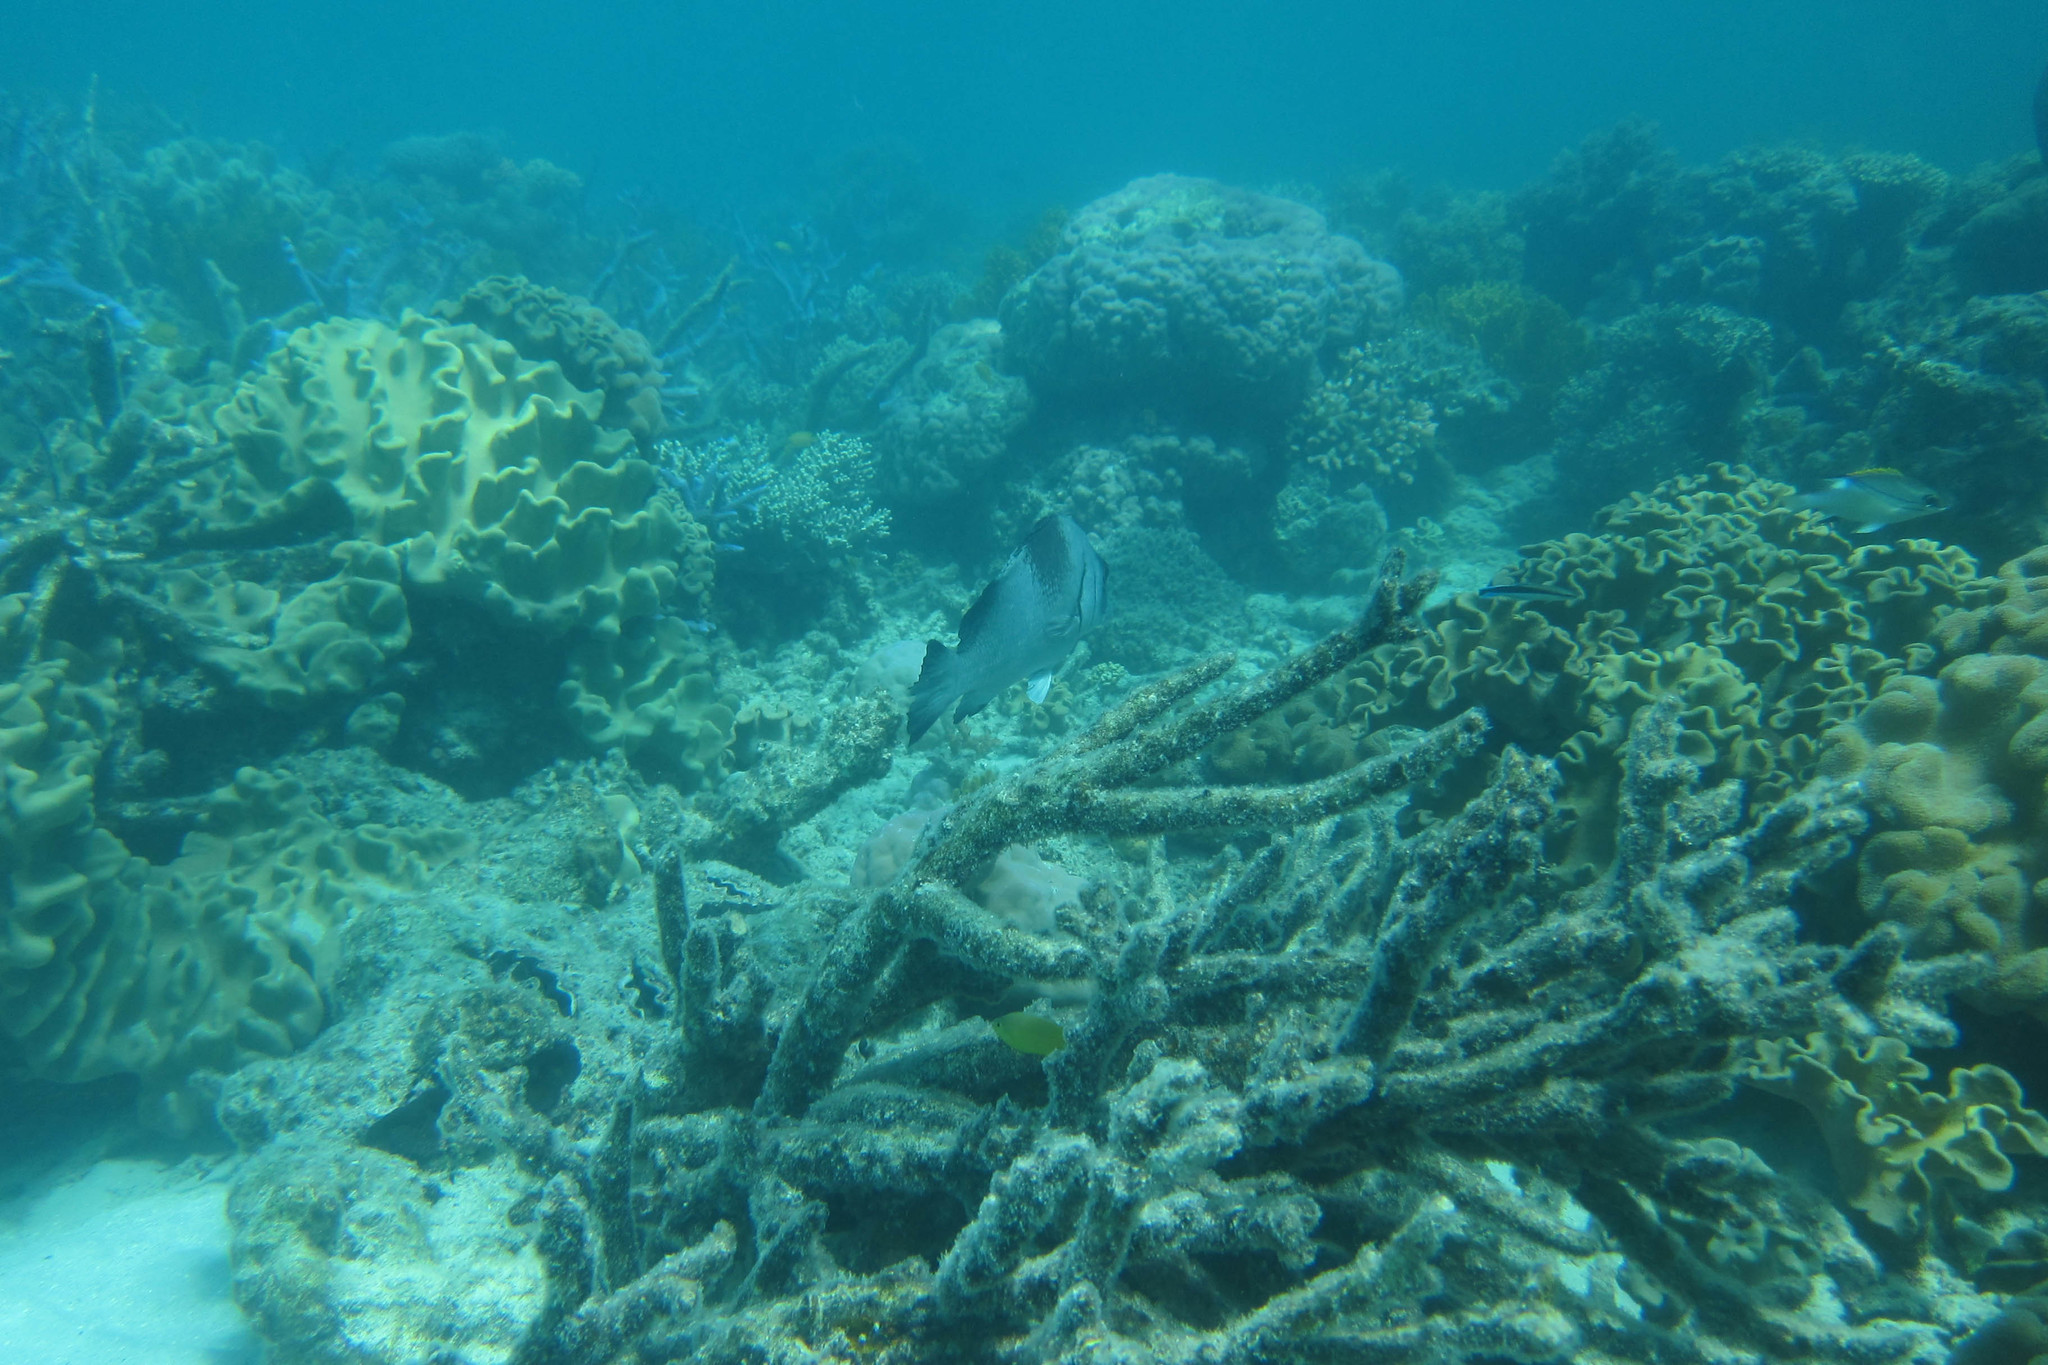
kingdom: Animalia
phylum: Chordata
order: Perciformes
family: Haemulidae
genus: Plectorhinchus
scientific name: Plectorhinchus gibbosus
